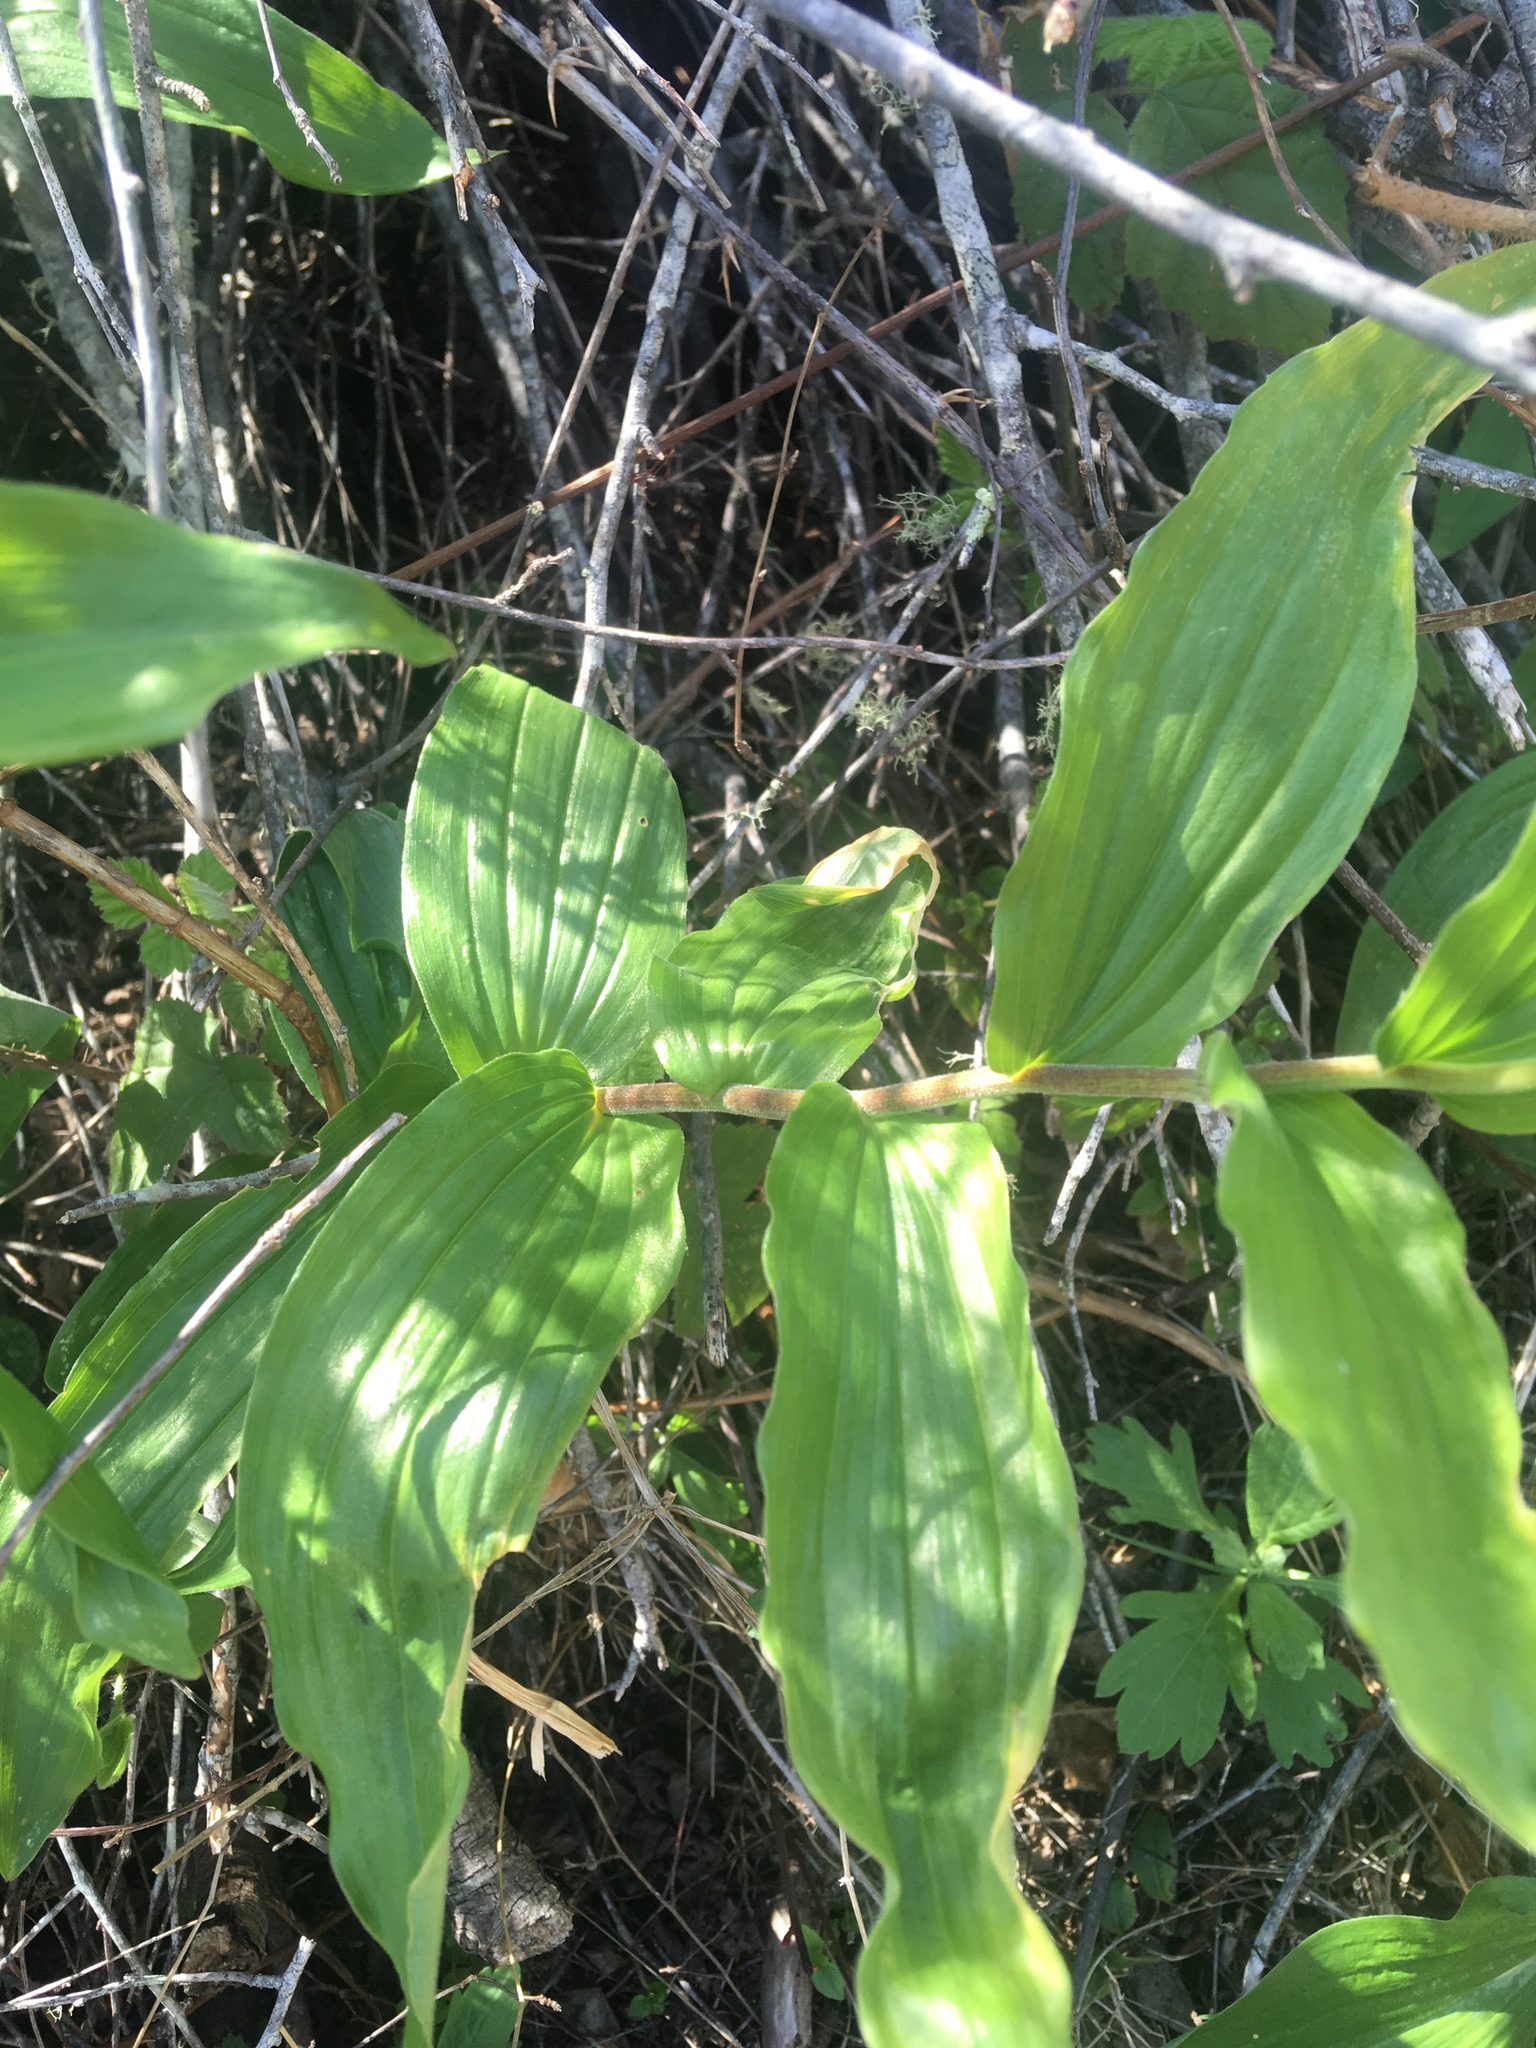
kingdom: Plantae
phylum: Tracheophyta
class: Liliopsida
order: Asparagales
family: Asparagaceae
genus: Maianthemum
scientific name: Maianthemum racemosum
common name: False spikenard
